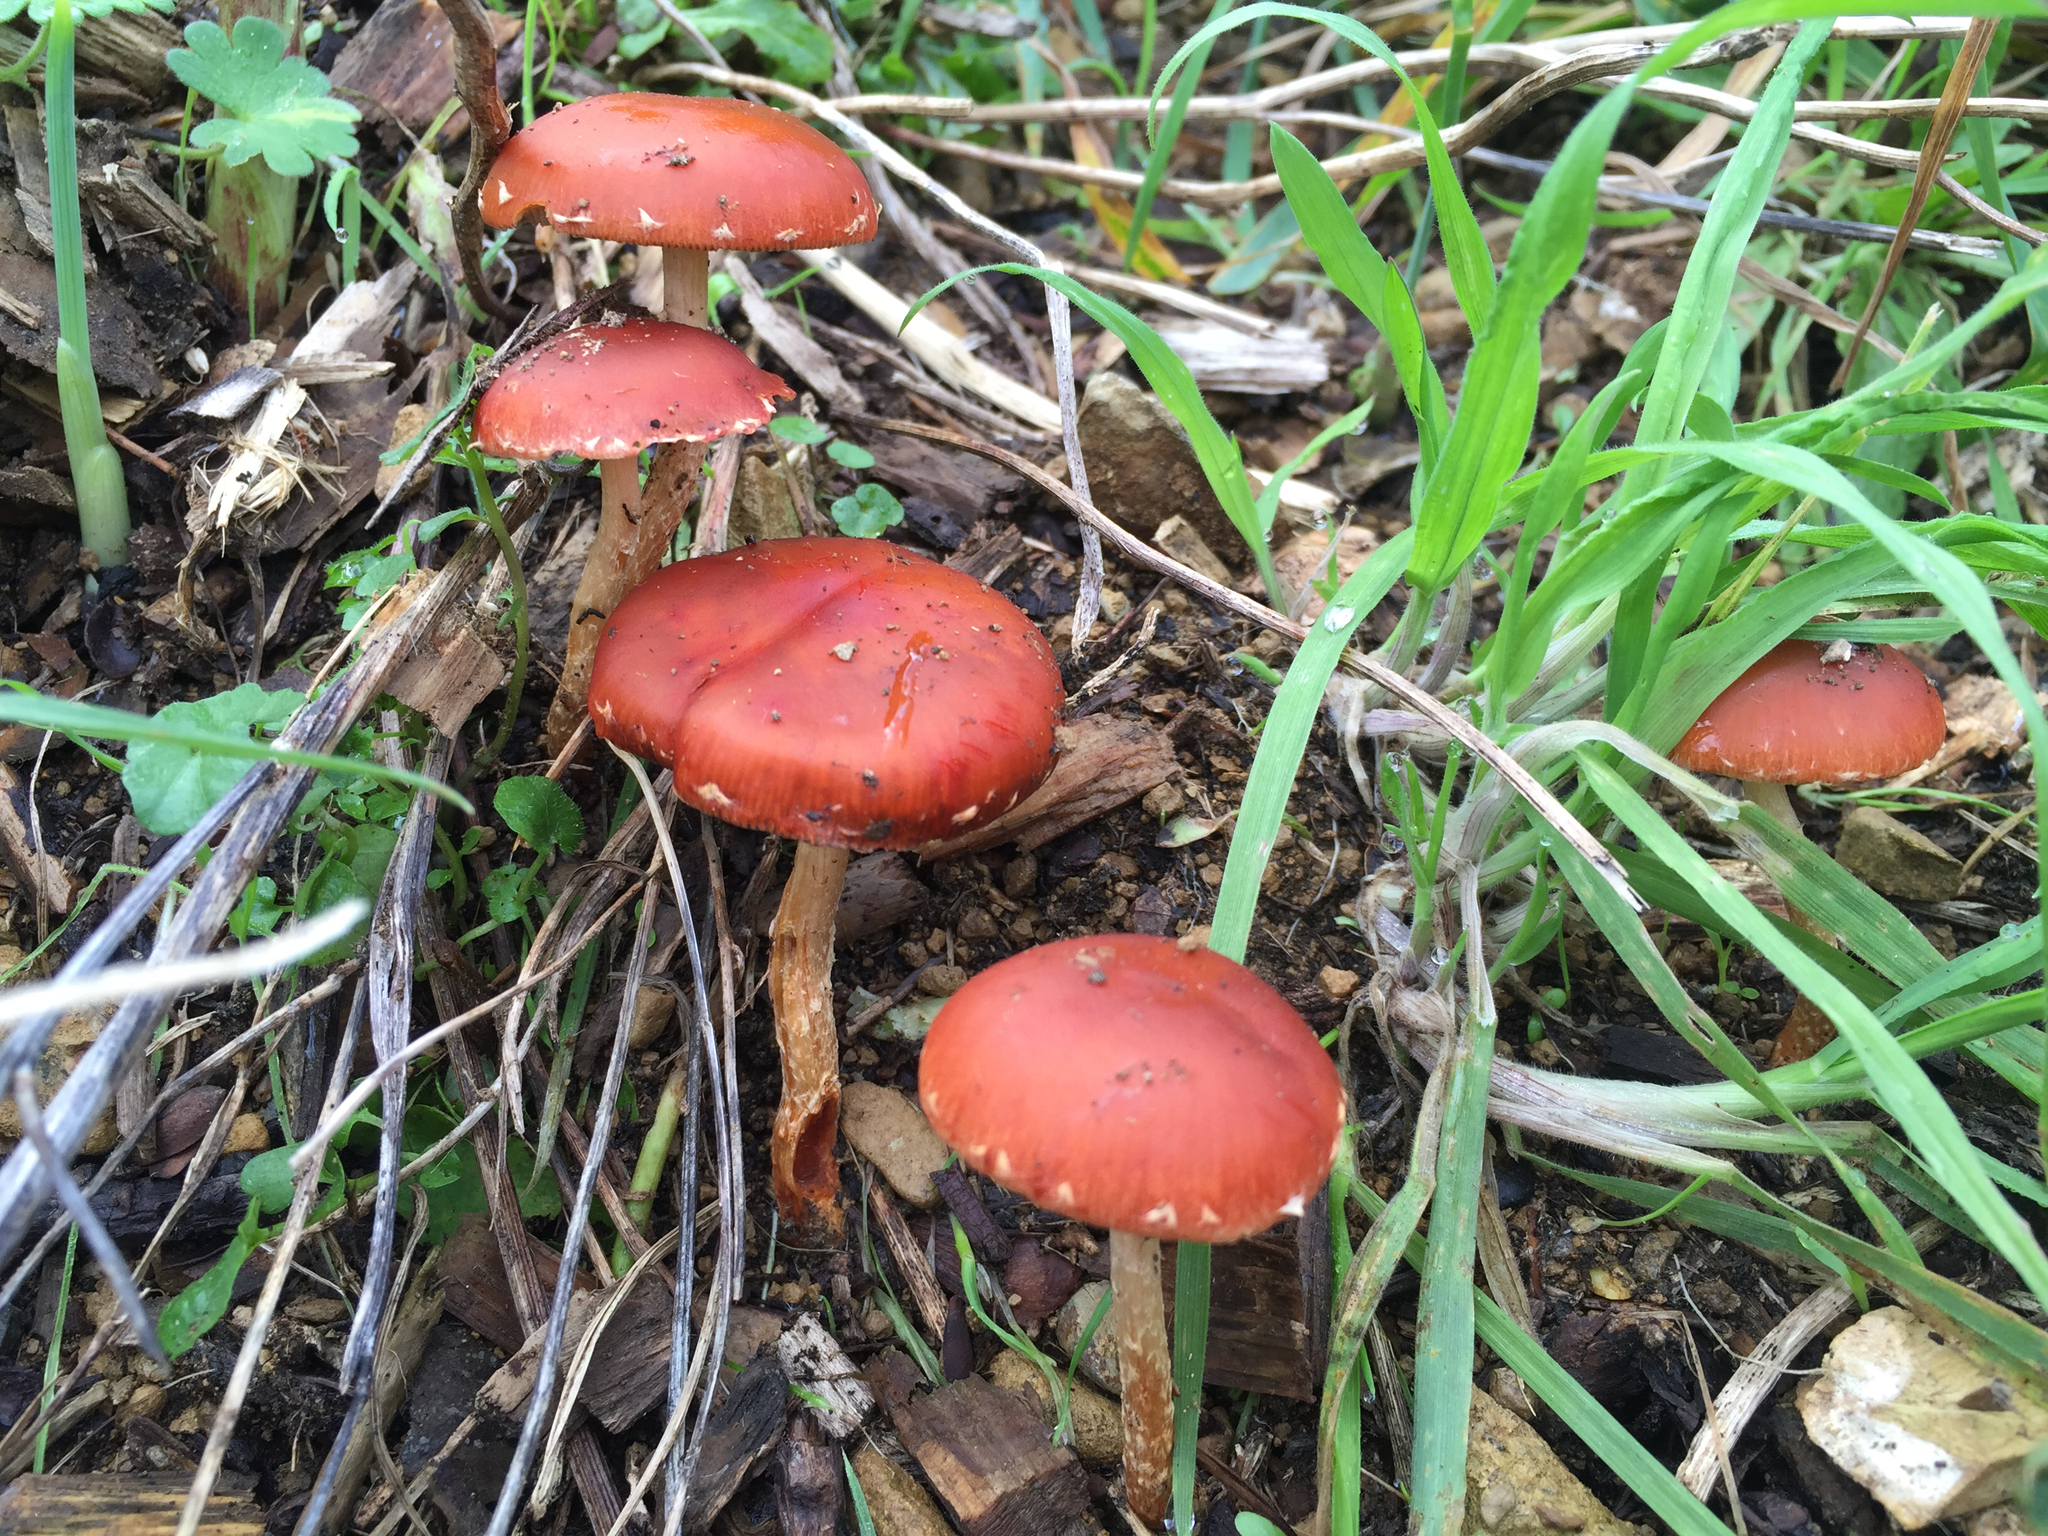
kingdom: Fungi
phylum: Basidiomycota
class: Agaricomycetes
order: Agaricales
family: Strophariaceae
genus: Leratiomyces
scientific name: Leratiomyces ceres
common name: Redlead roundhead
